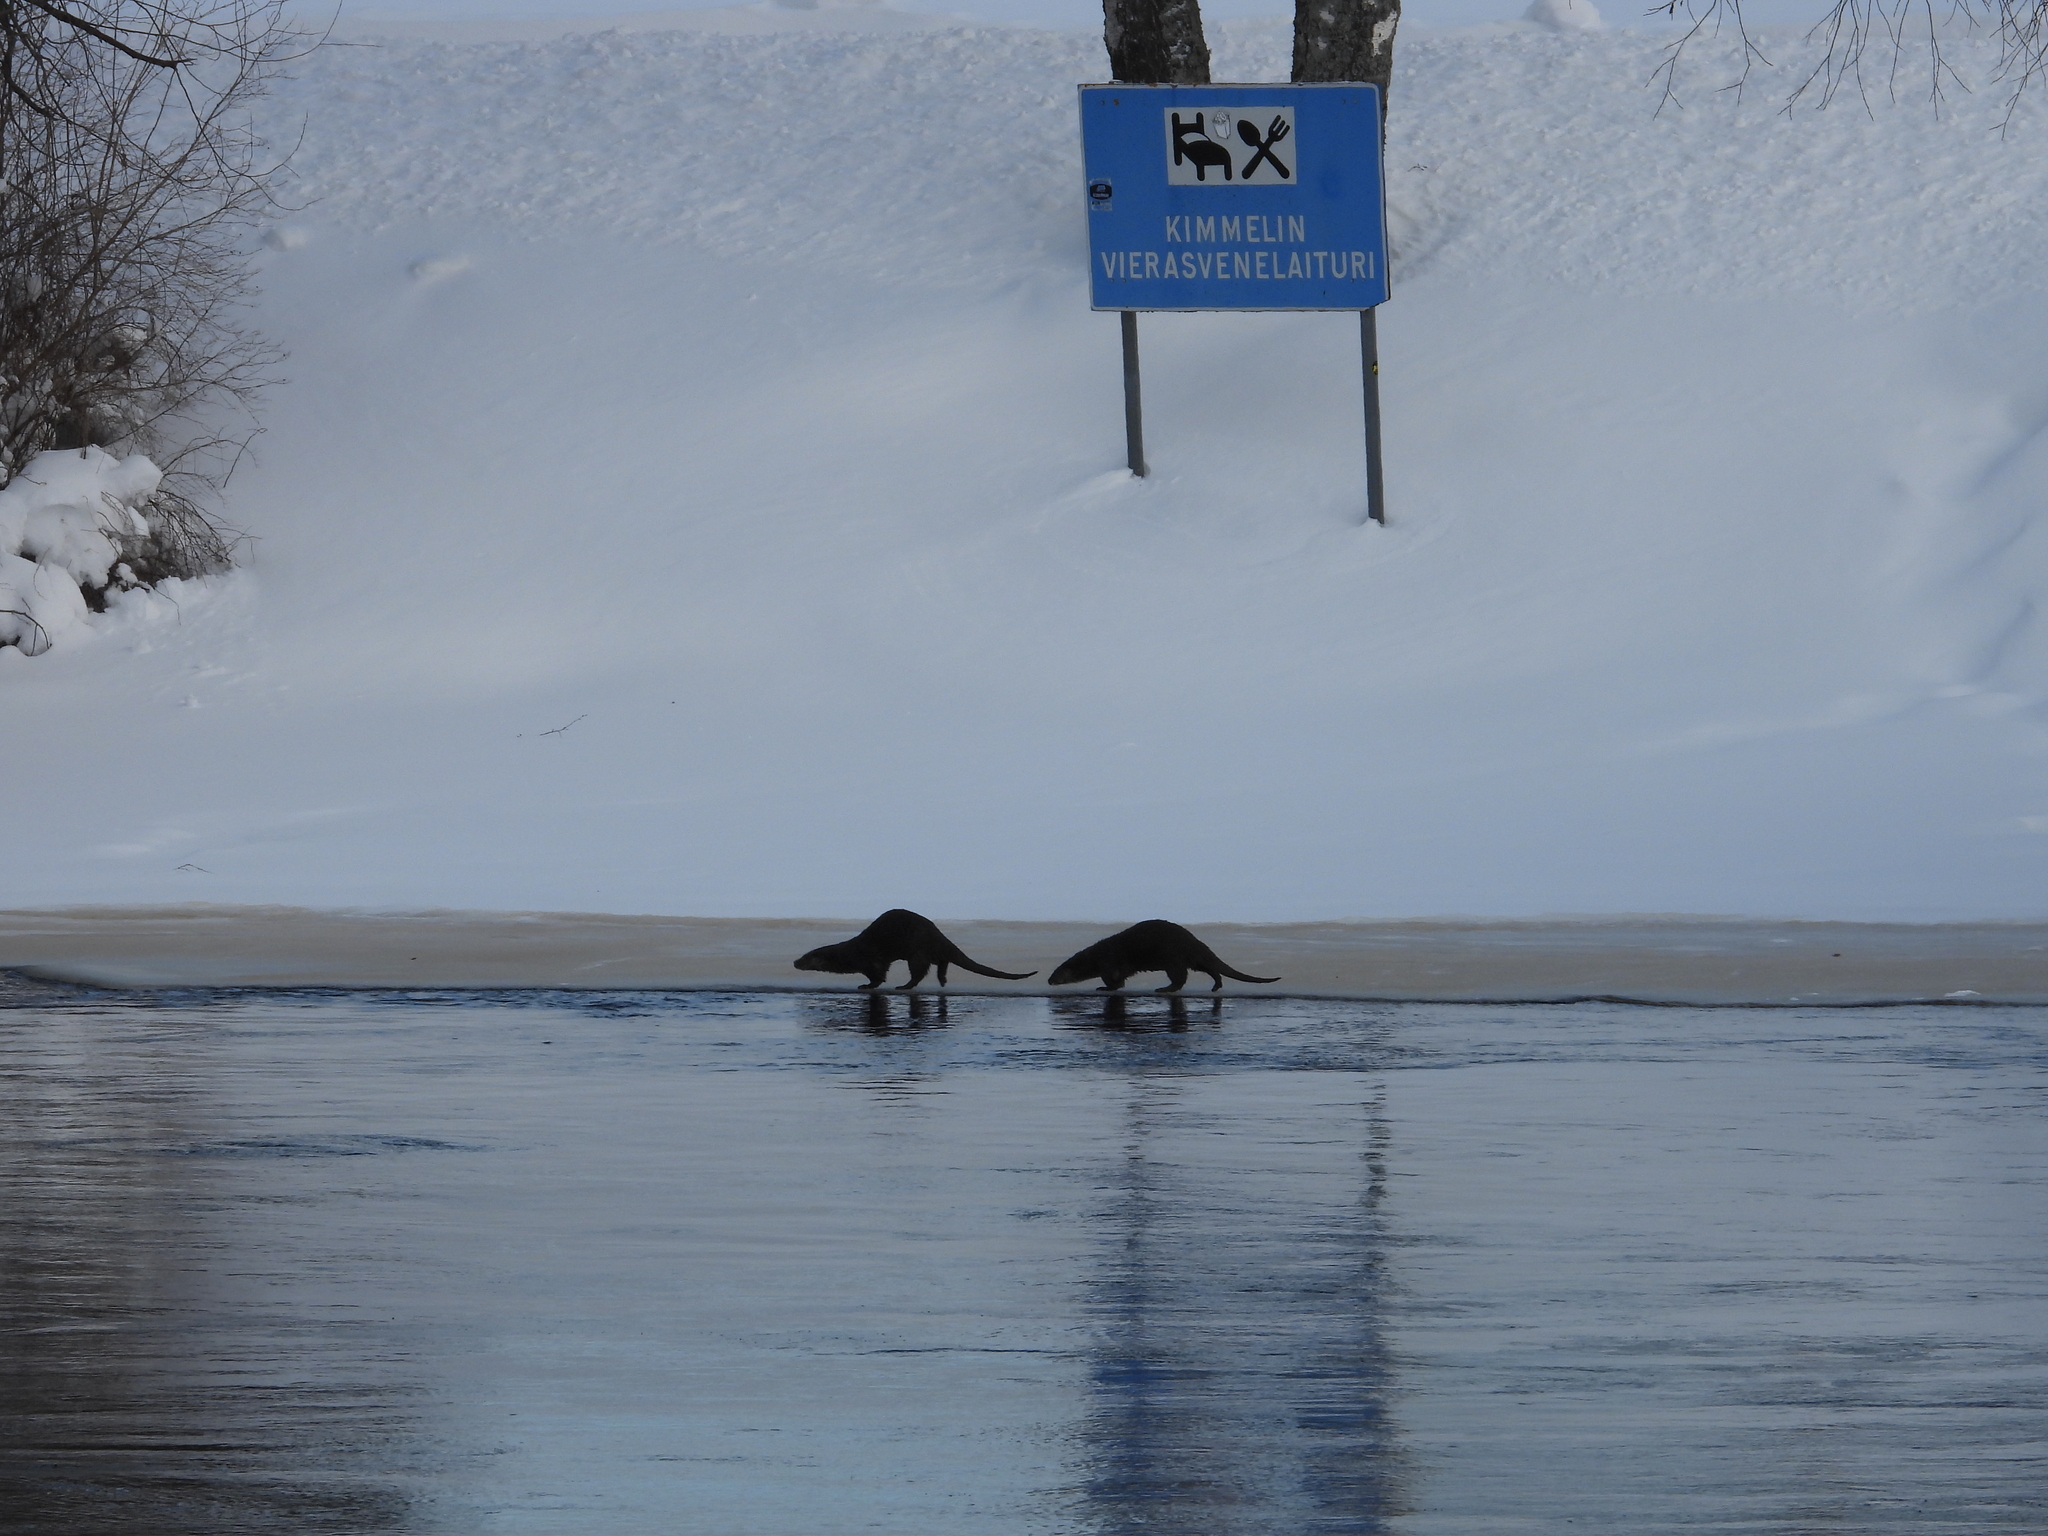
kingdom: Animalia
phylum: Chordata
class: Mammalia
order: Carnivora
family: Mustelidae
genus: Lutra
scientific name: Lutra lutra
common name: European otter
